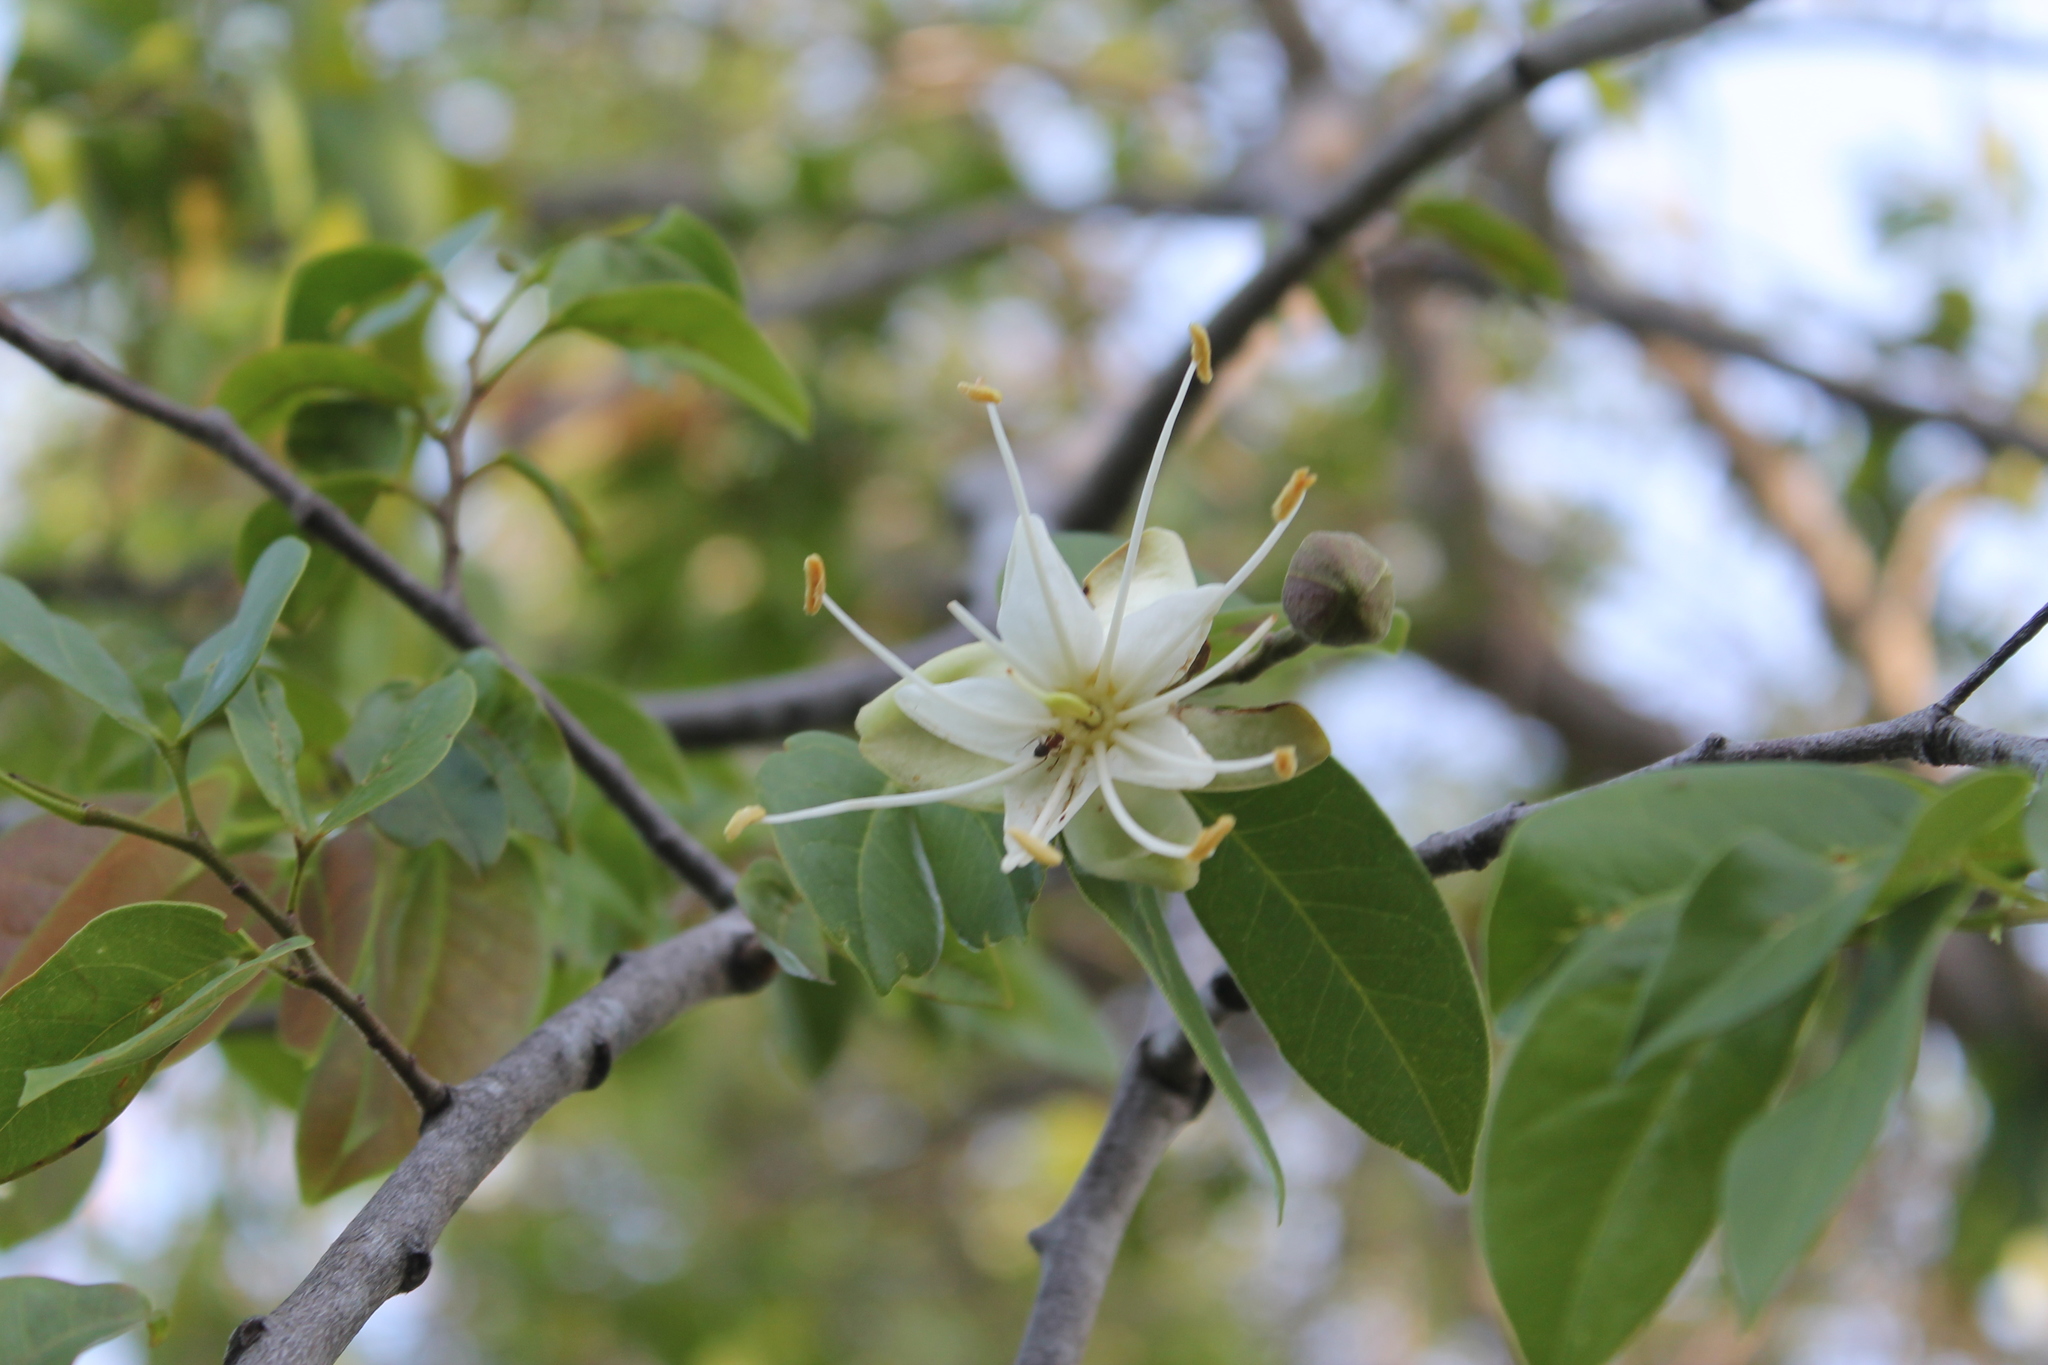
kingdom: Plantae
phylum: Tracheophyta
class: Magnoliopsida
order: Fabales
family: Fabaceae
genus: Hymenaea
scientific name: Hymenaea courbaril
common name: Brazilian copal
